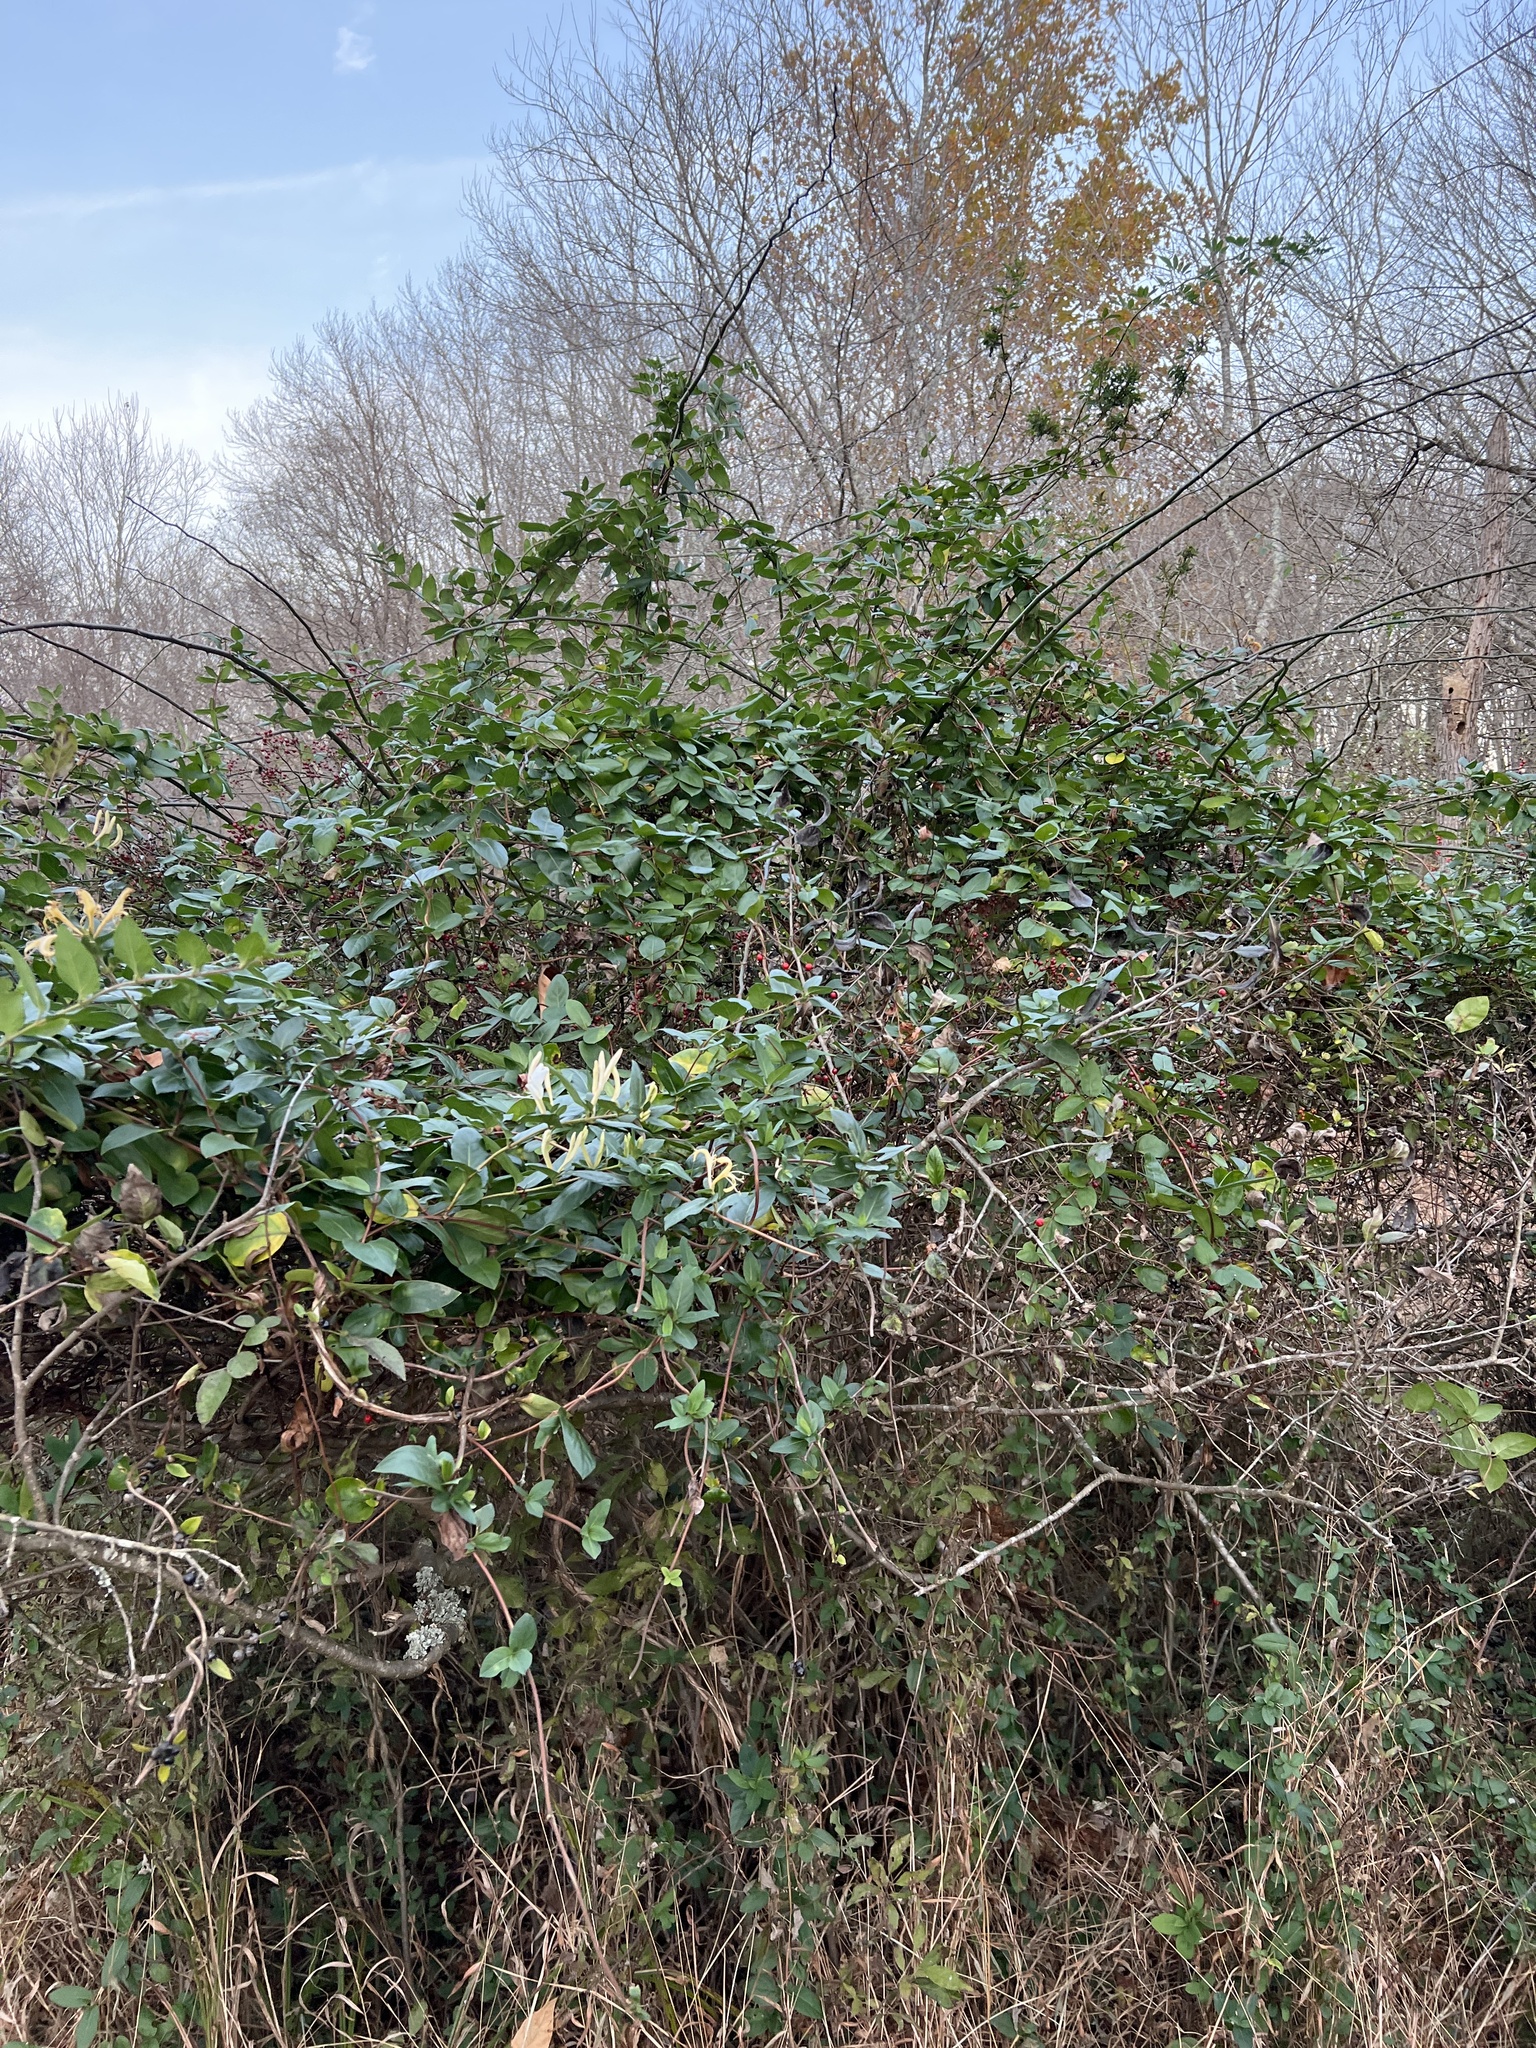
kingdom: Plantae
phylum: Tracheophyta
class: Magnoliopsida
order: Dipsacales
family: Caprifoliaceae
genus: Lonicera
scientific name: Lonicera japonica
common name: Japanese honeysuckle
